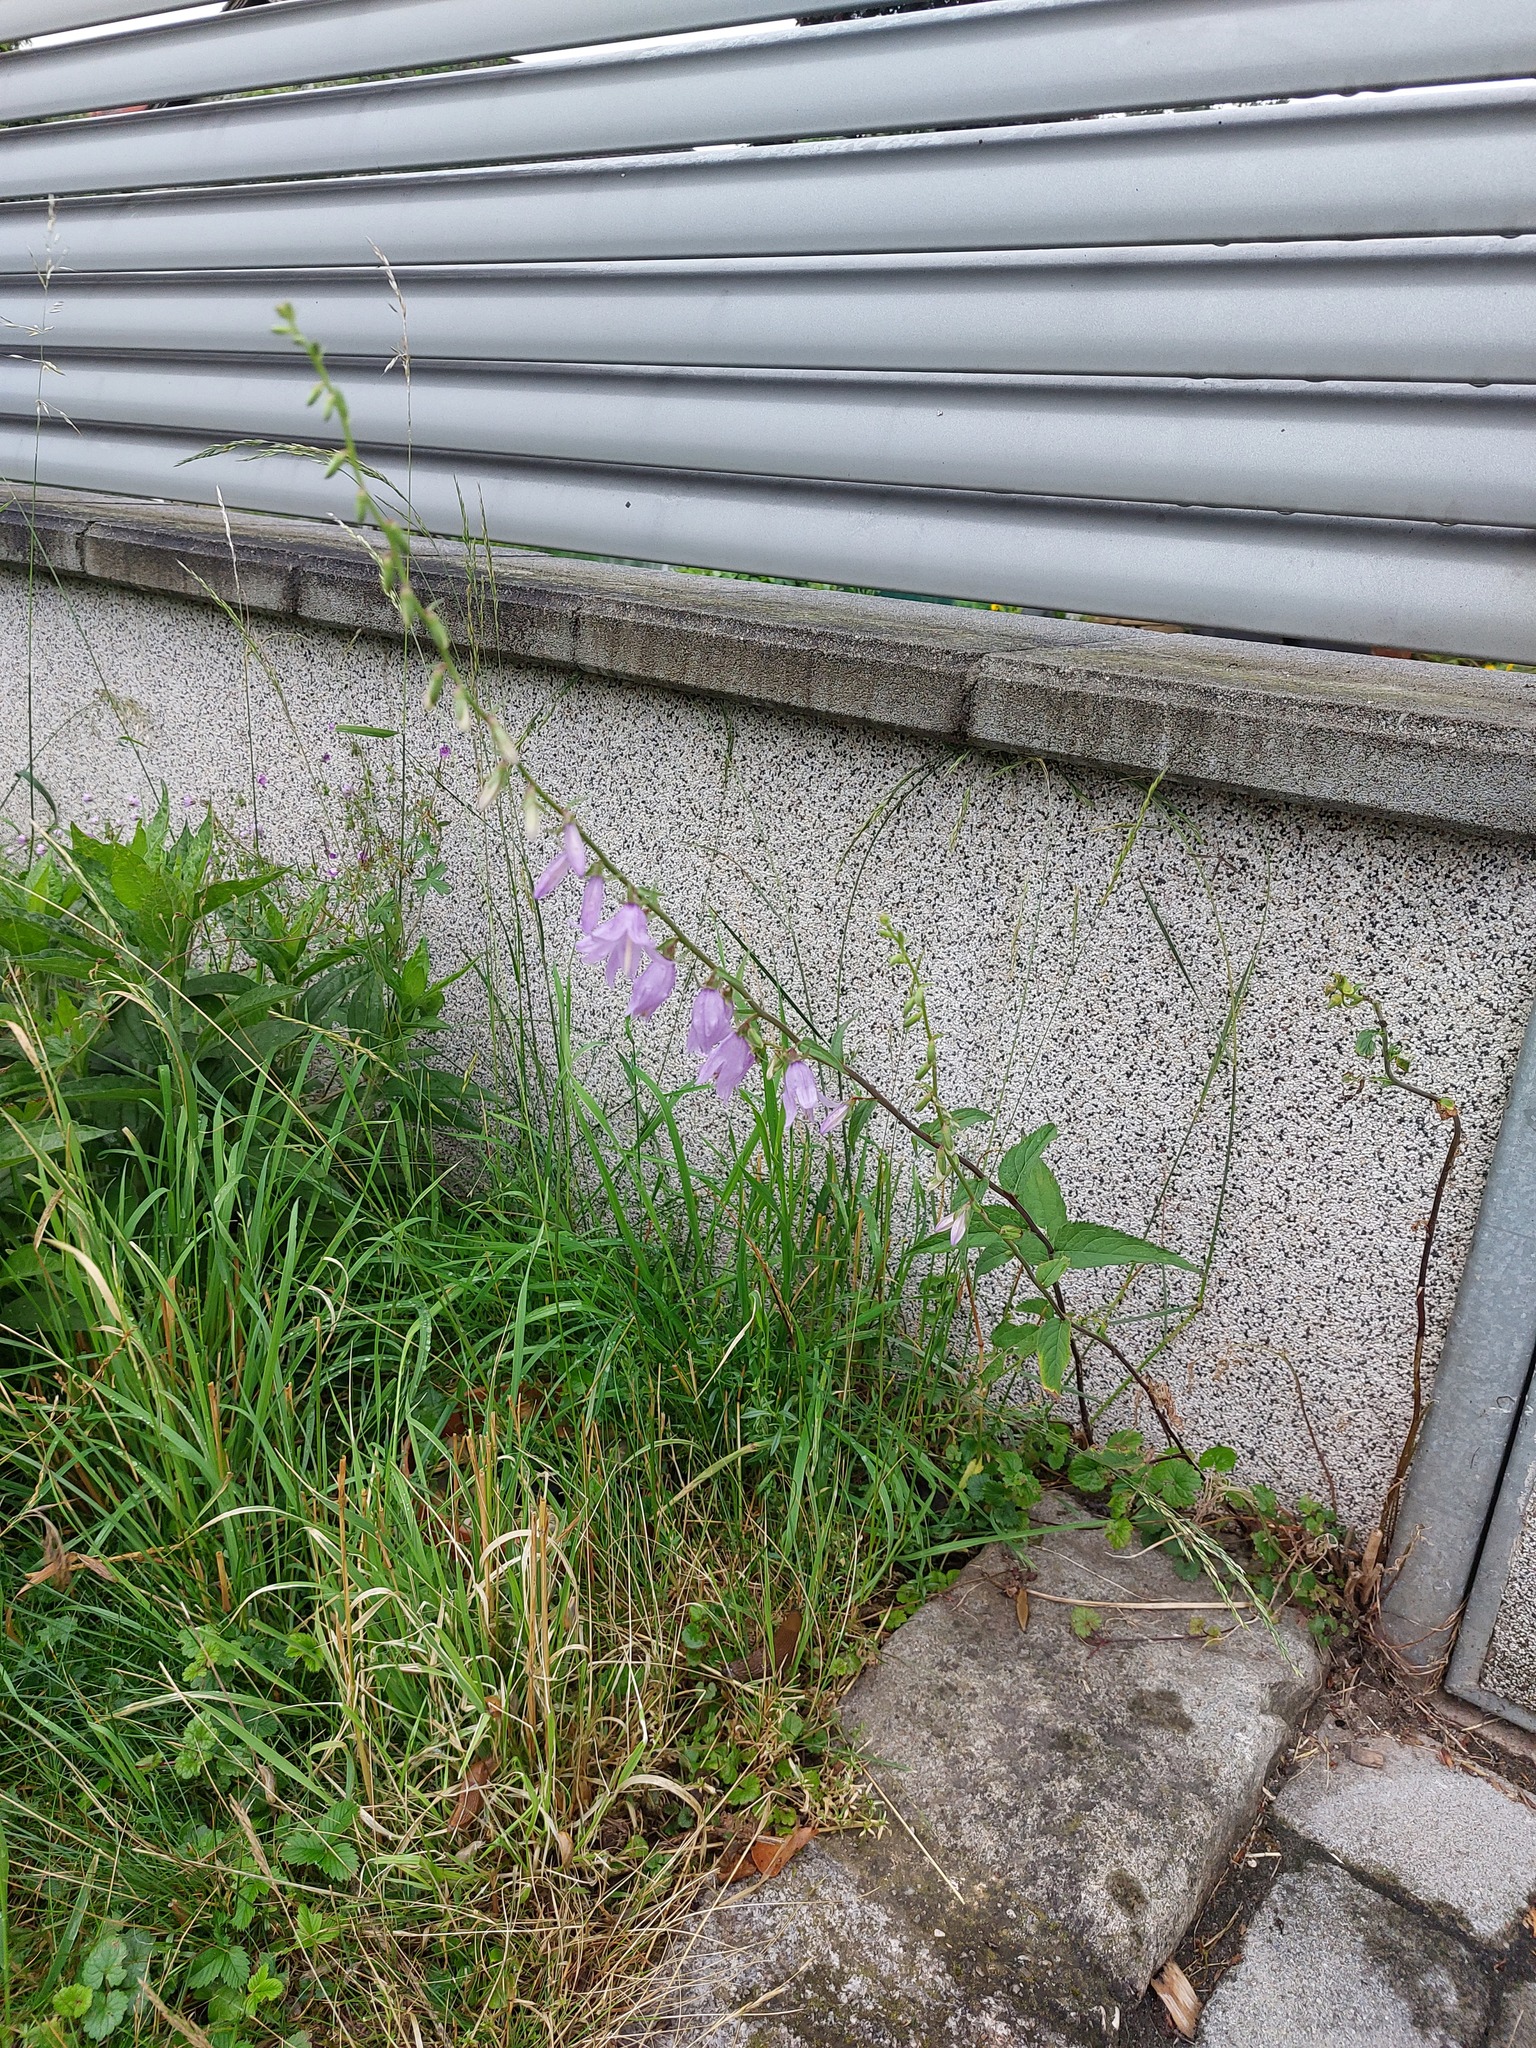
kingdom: Plantae
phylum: Tracheophyta
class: Magnoliopsida
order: Asterales
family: Campanulaceae
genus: Campanula
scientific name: Campanula rapunculoides
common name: Creeping bellflower
